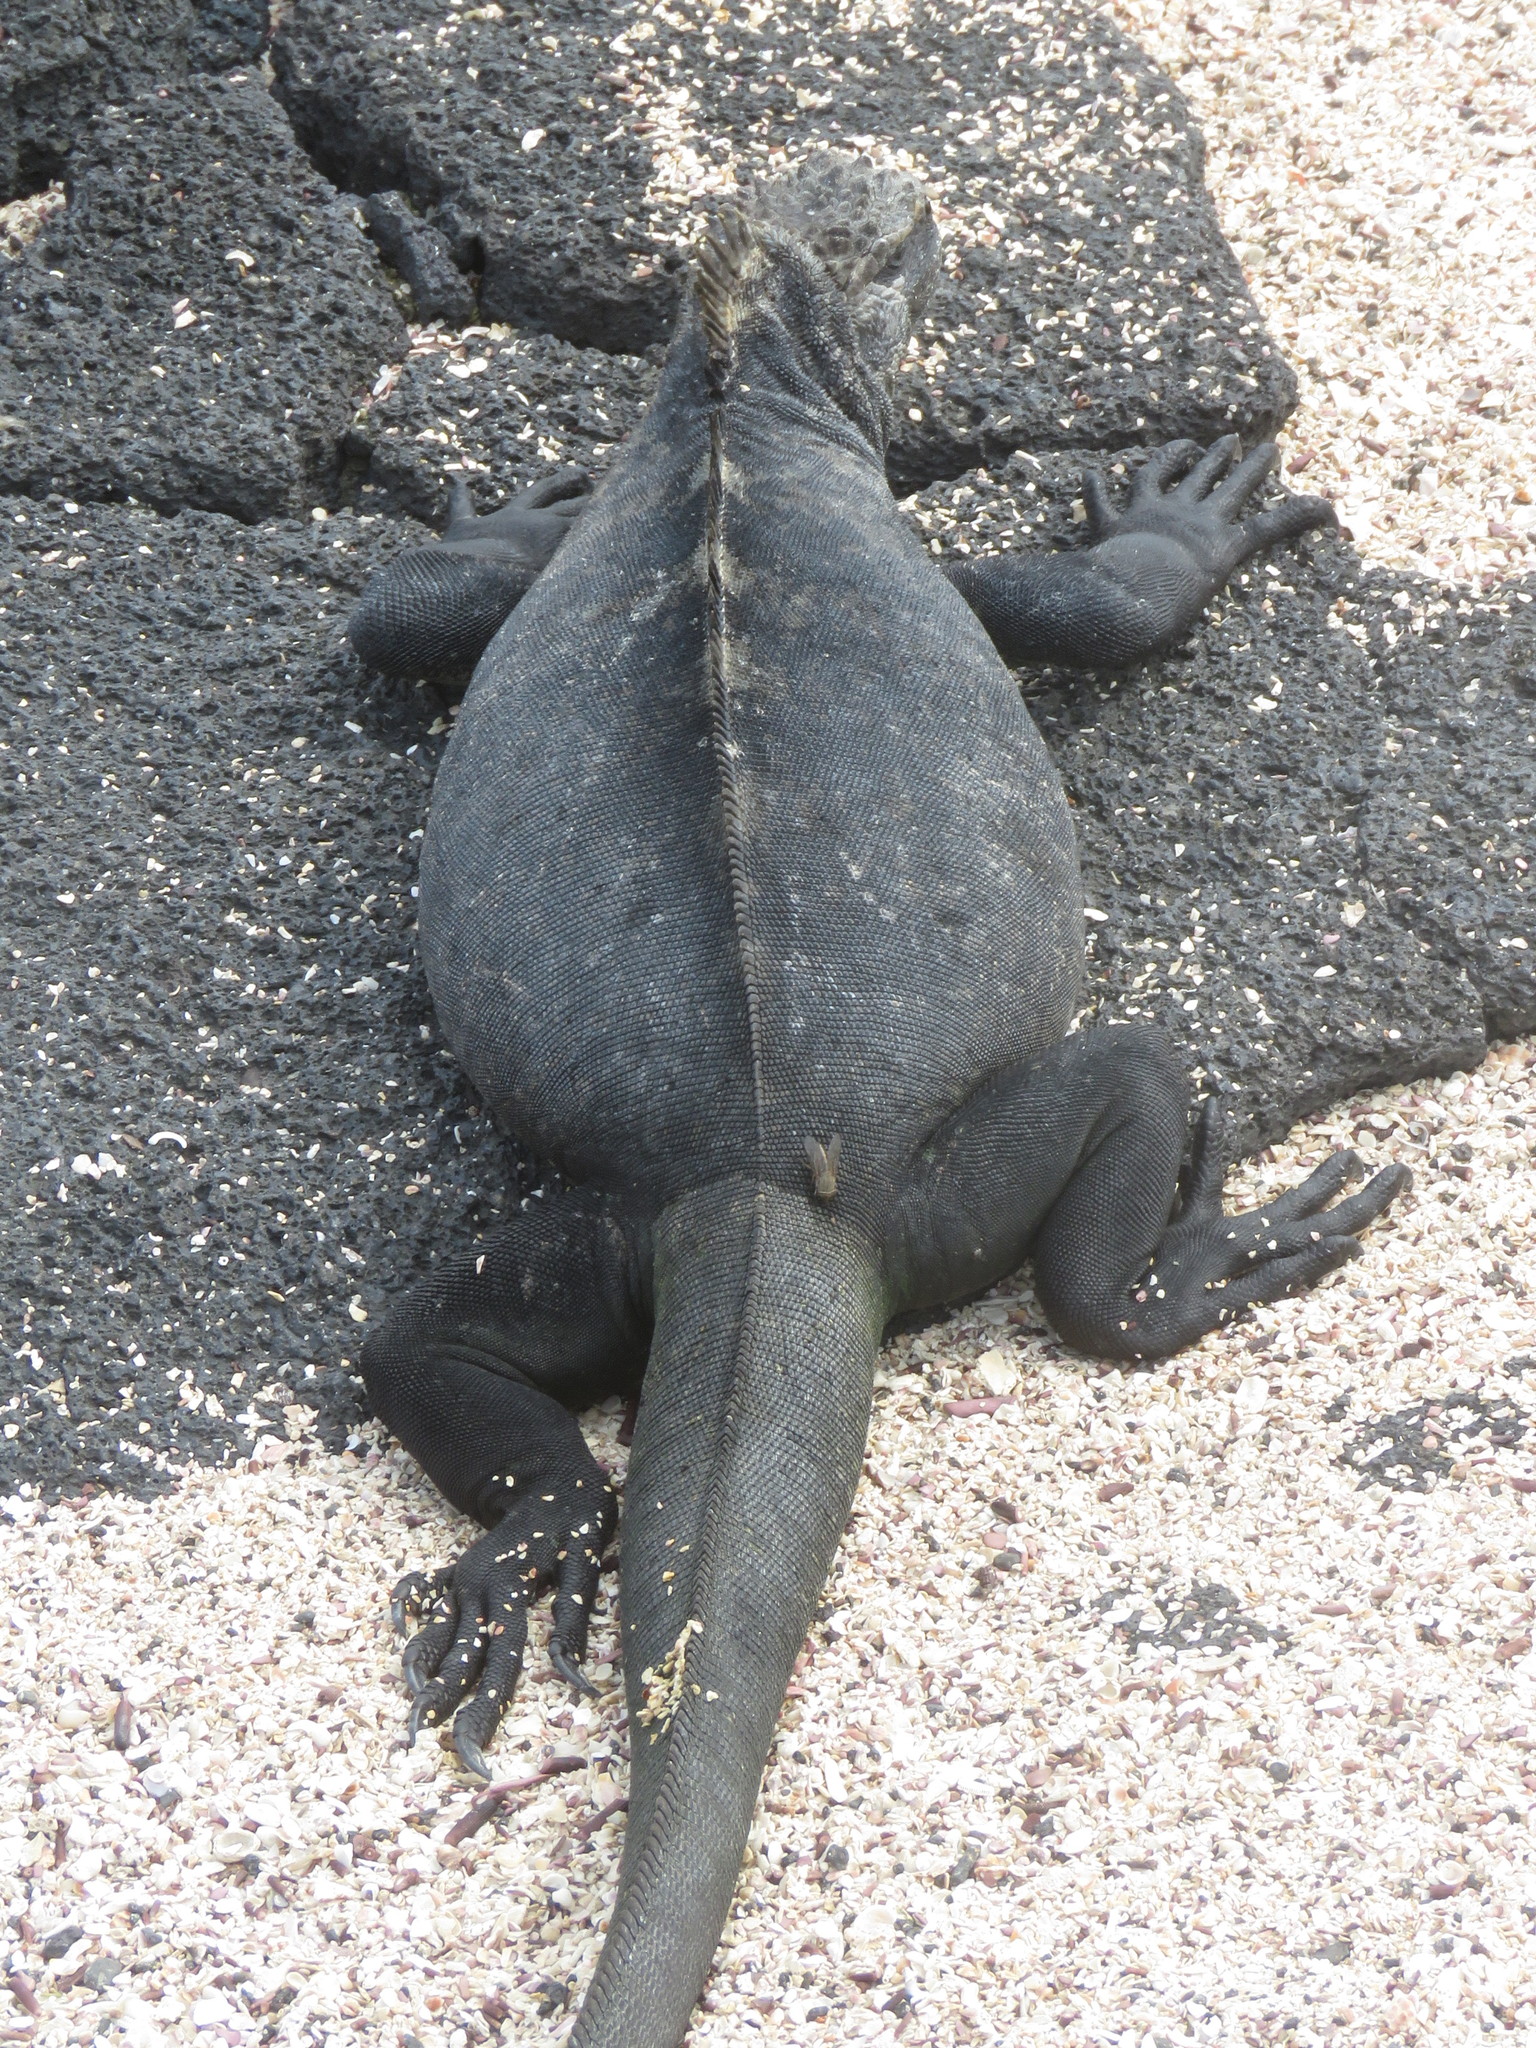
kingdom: Animalia
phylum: Chordata
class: Squamata
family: Iguanidae
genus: Amblyrhynchus
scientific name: Amblyrhynchus cristatus
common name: Marine iguana
